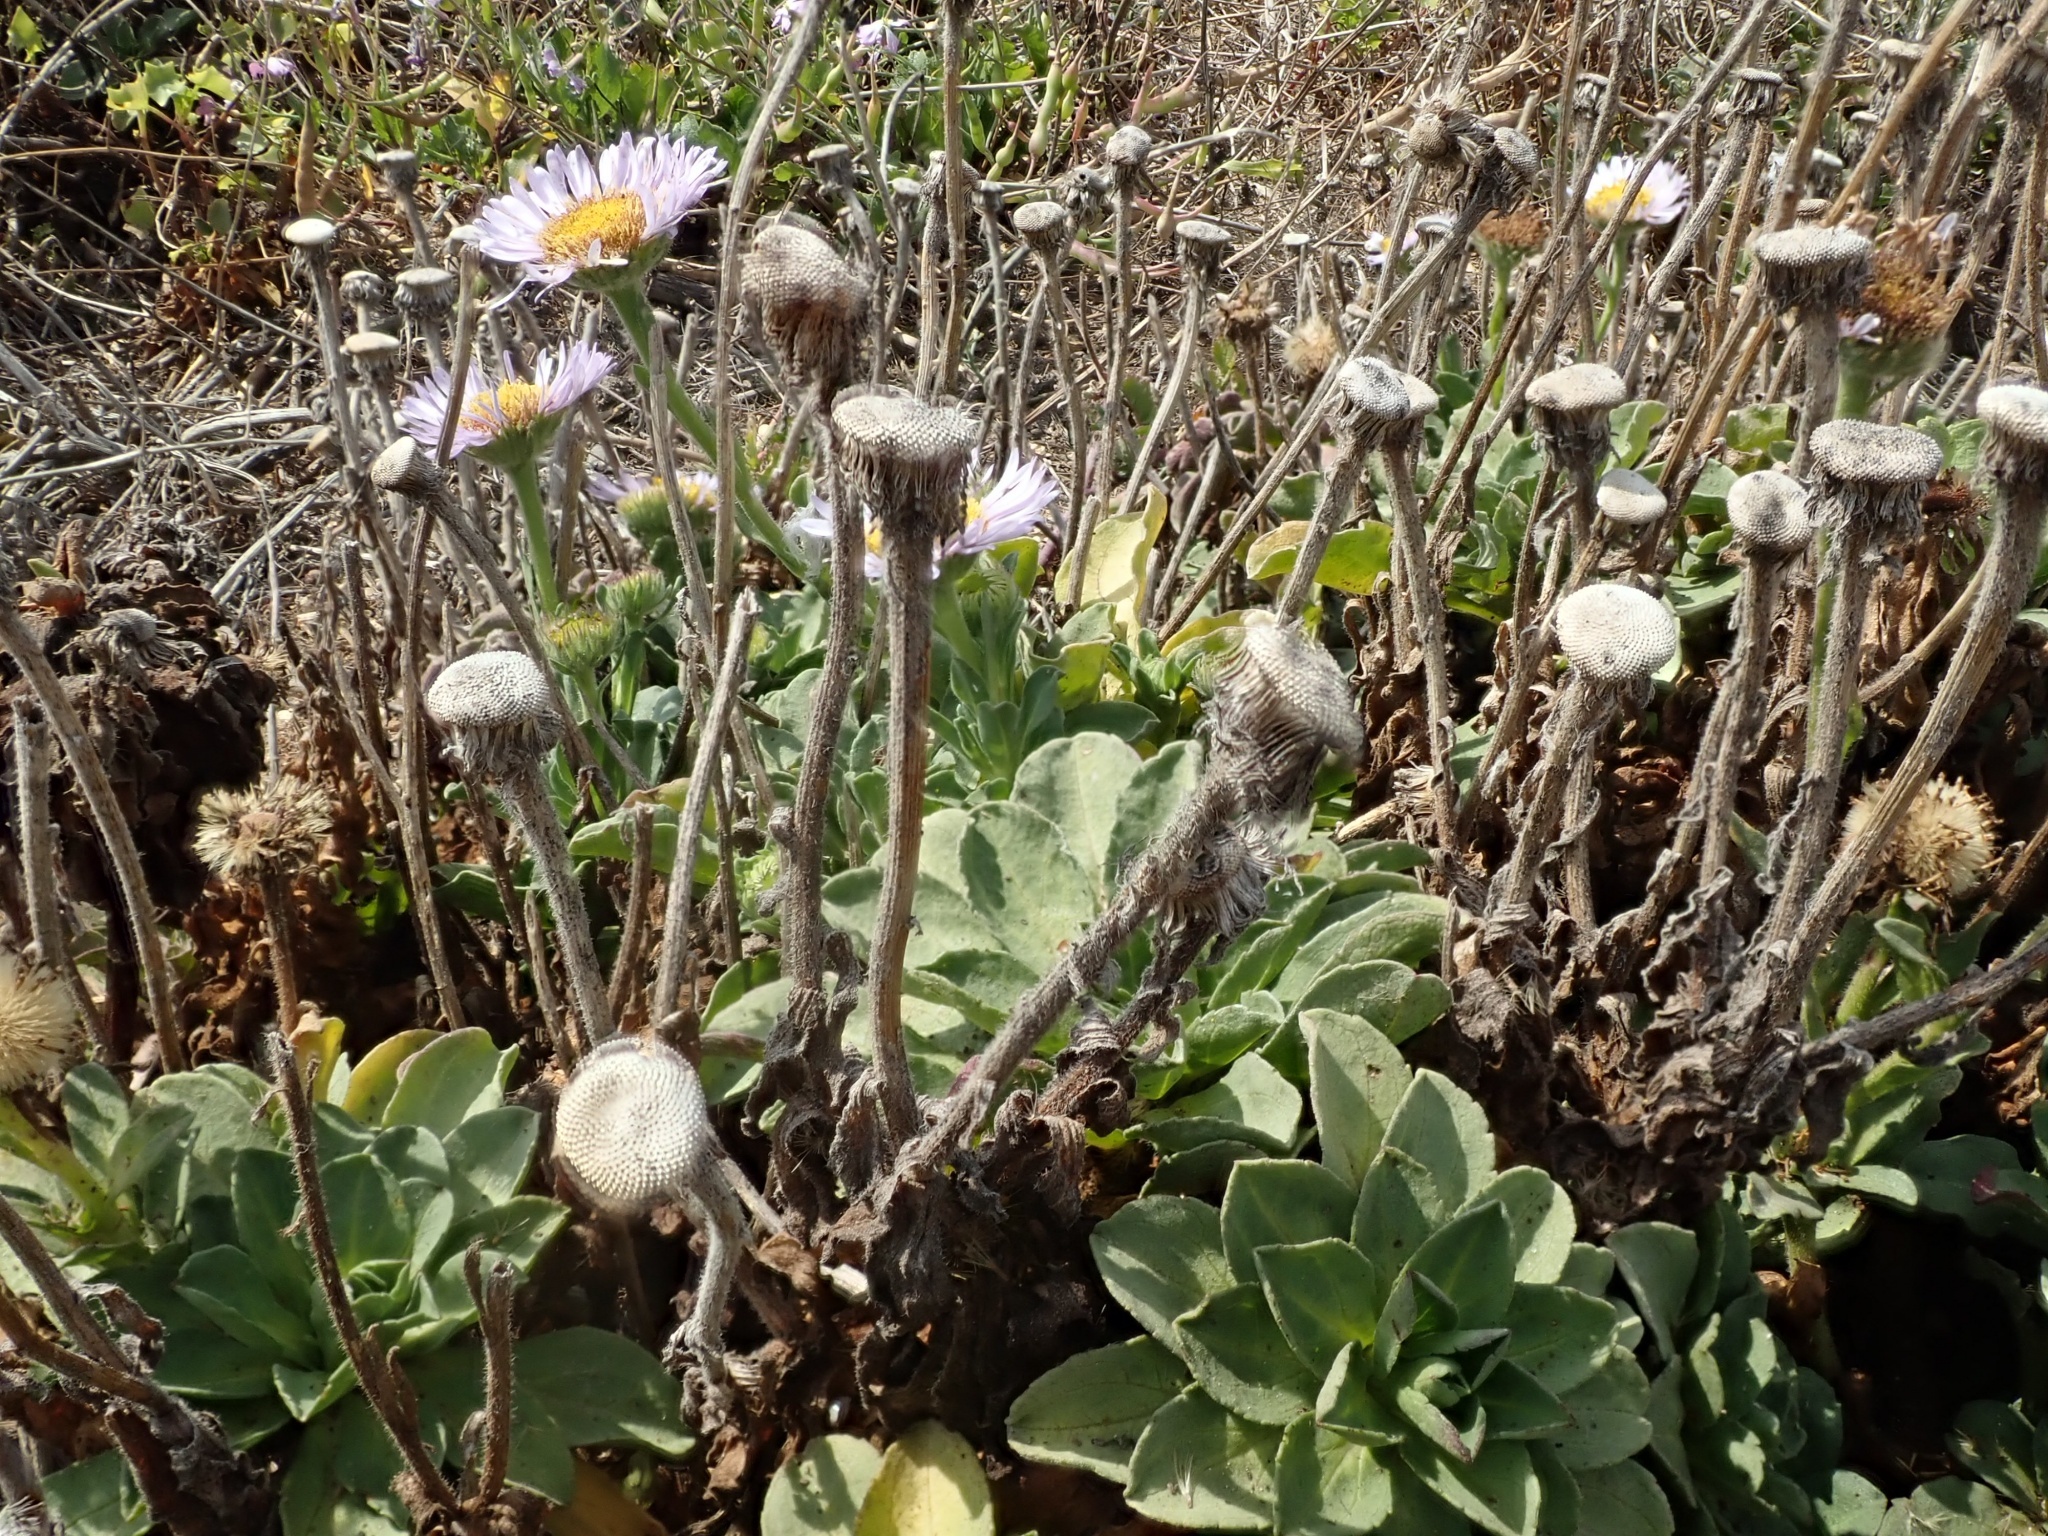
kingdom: Plantae
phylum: Tracheophyta
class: Magnoliopsida
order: Asterales
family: Asteraceae
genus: Erigeron
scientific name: Erigeron glaucus
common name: Seaside daisy
